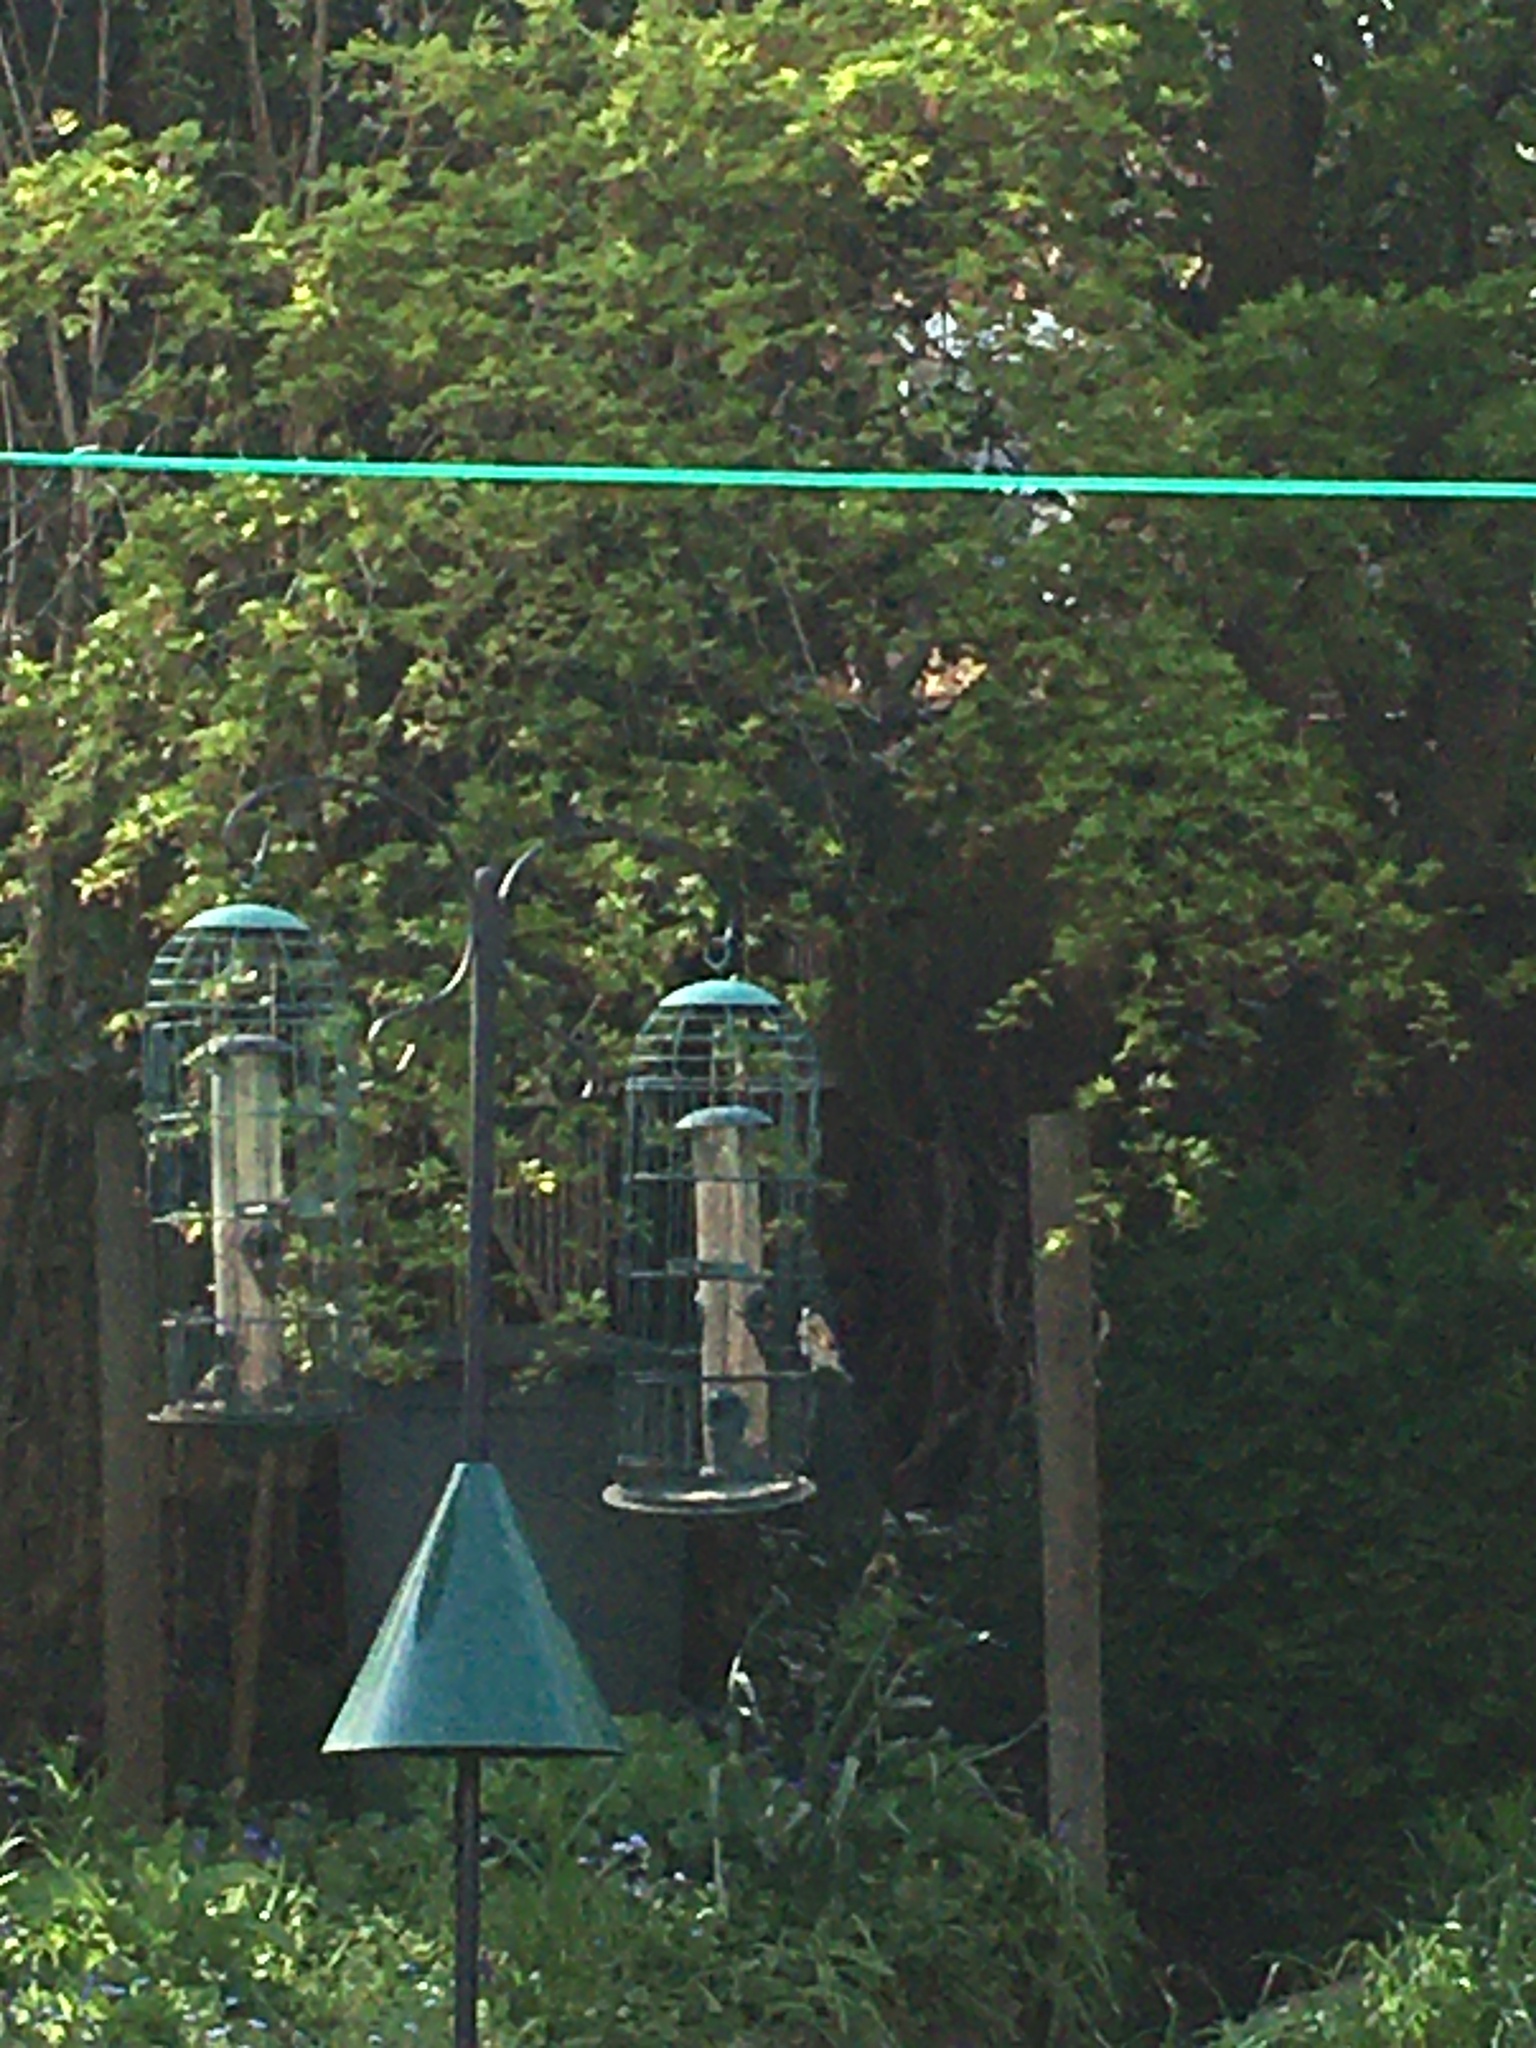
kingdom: Animalia
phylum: Chordata
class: Aves
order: Passeriformes
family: Fringillidae
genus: Carduelis
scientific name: Carduelis carduelis
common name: European goldfinch
